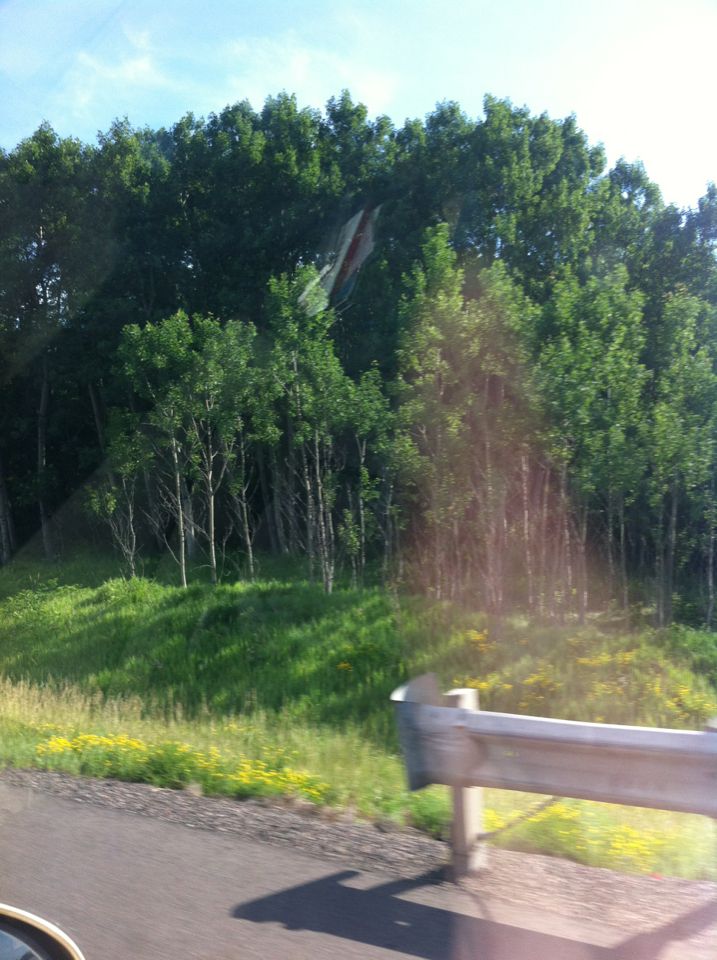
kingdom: Plantae
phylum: Tracheophyta
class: Magnoliopsida
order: Malpighiales
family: Salicaceae
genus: Populus
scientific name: Populus tremuloides
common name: Quaking aspen
